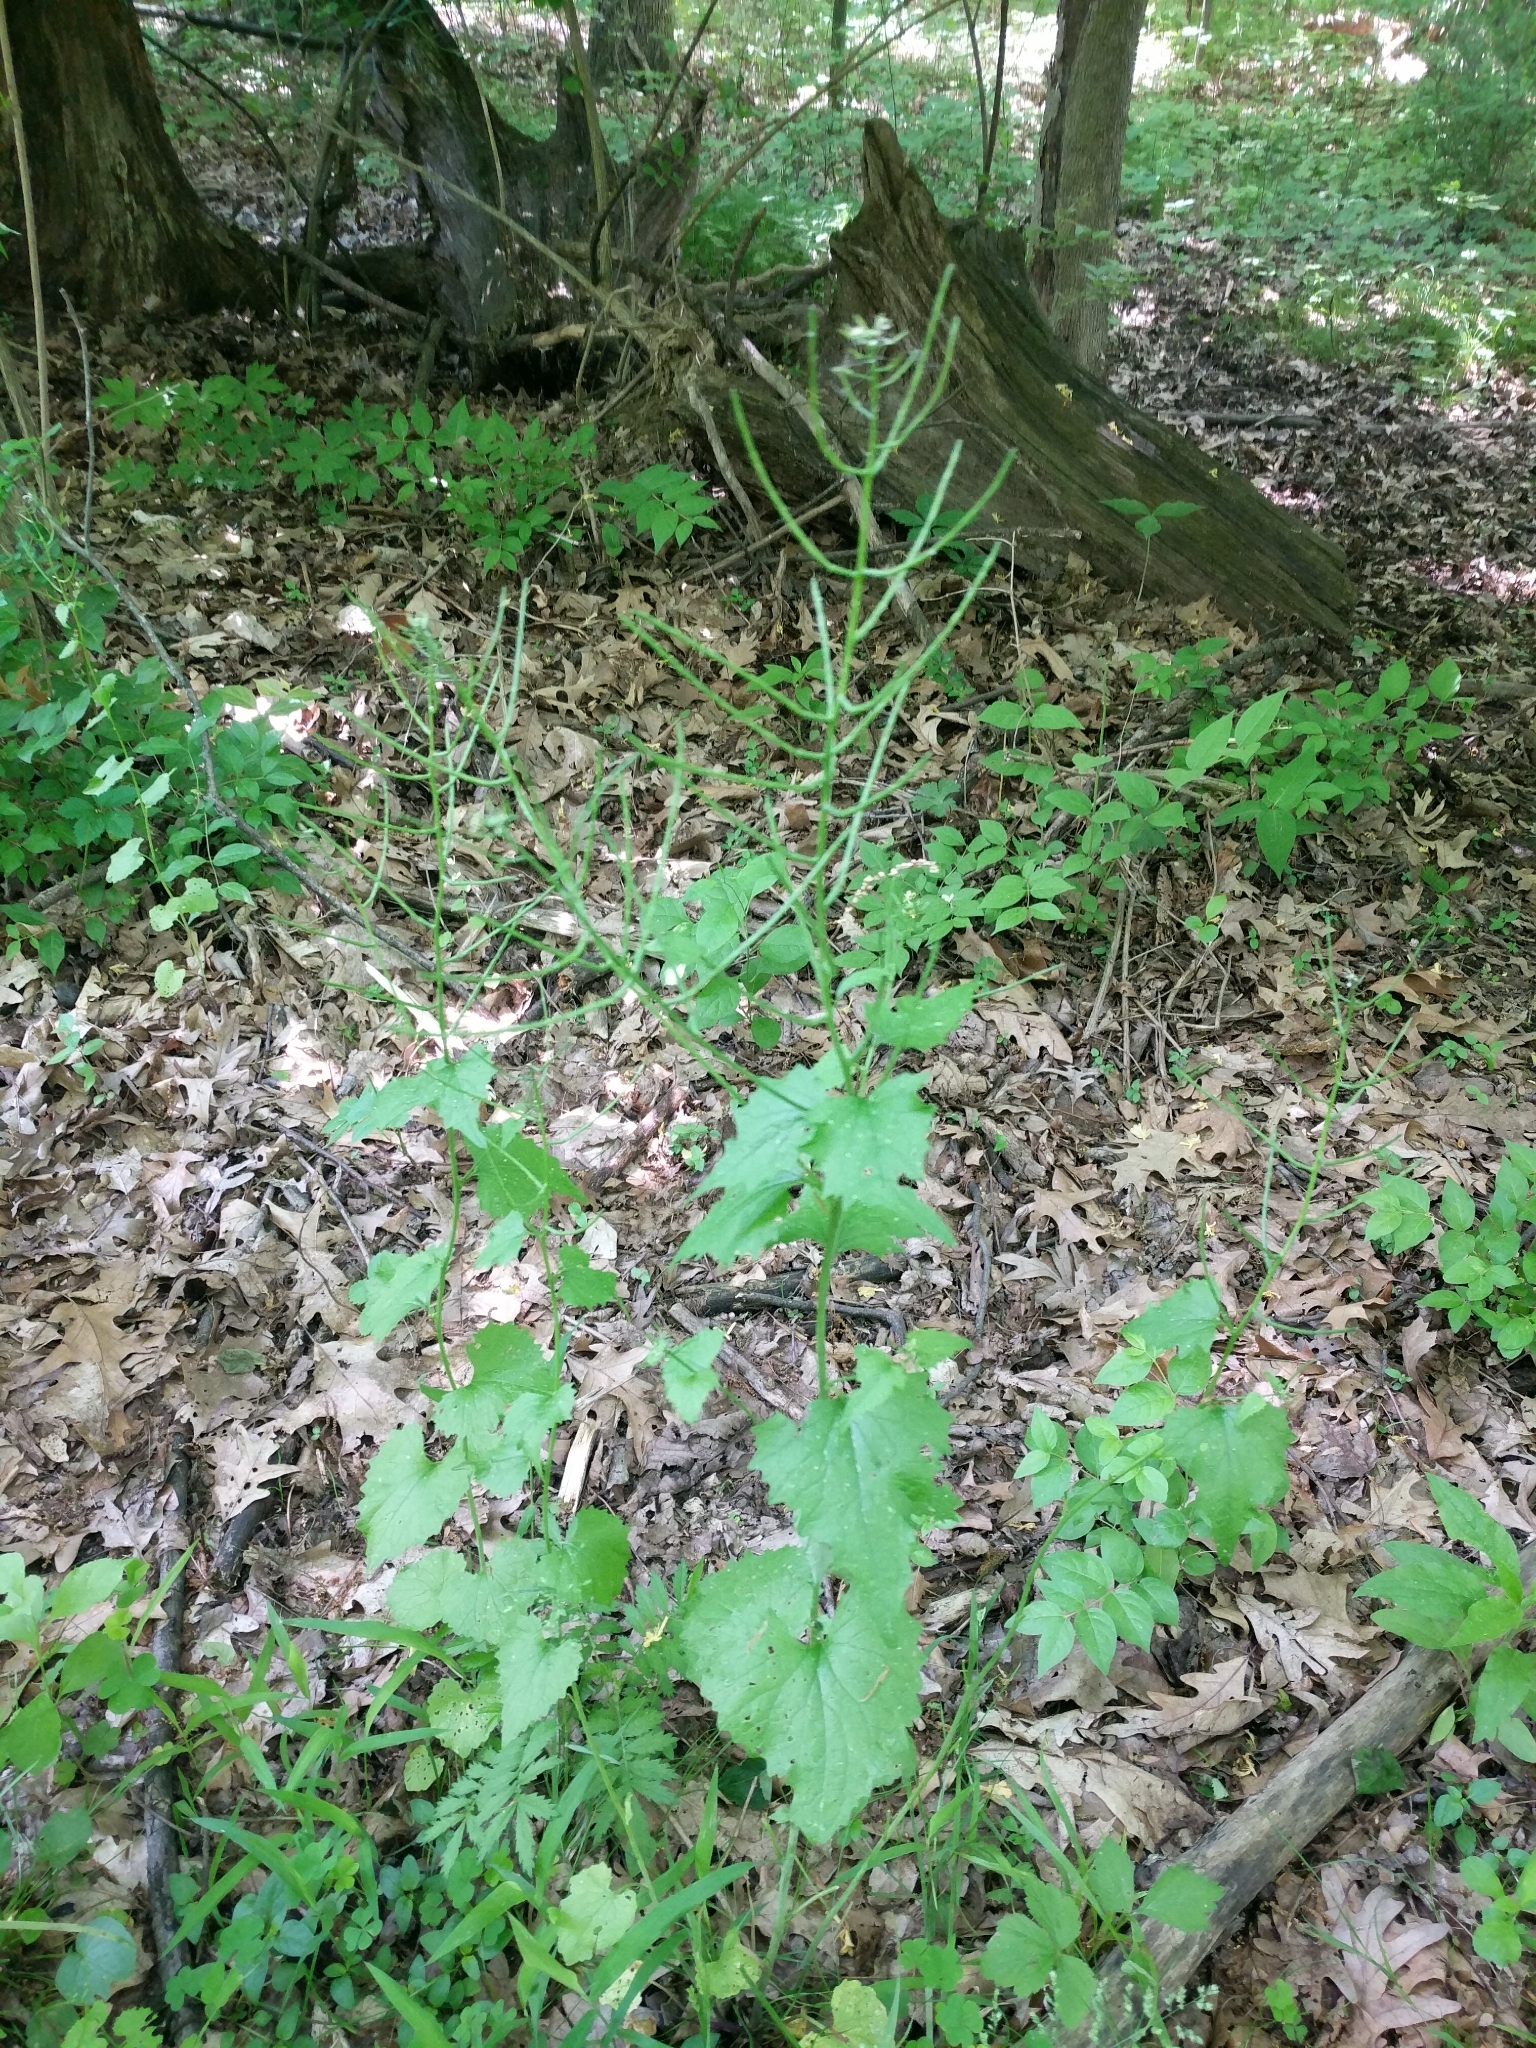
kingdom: Plantae
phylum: Tracheophyta
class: Magnoliopsida
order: Brassicales
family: Brassicaceae
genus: Alliaria
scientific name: Alliaria petiolata
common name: Garlic mustard
